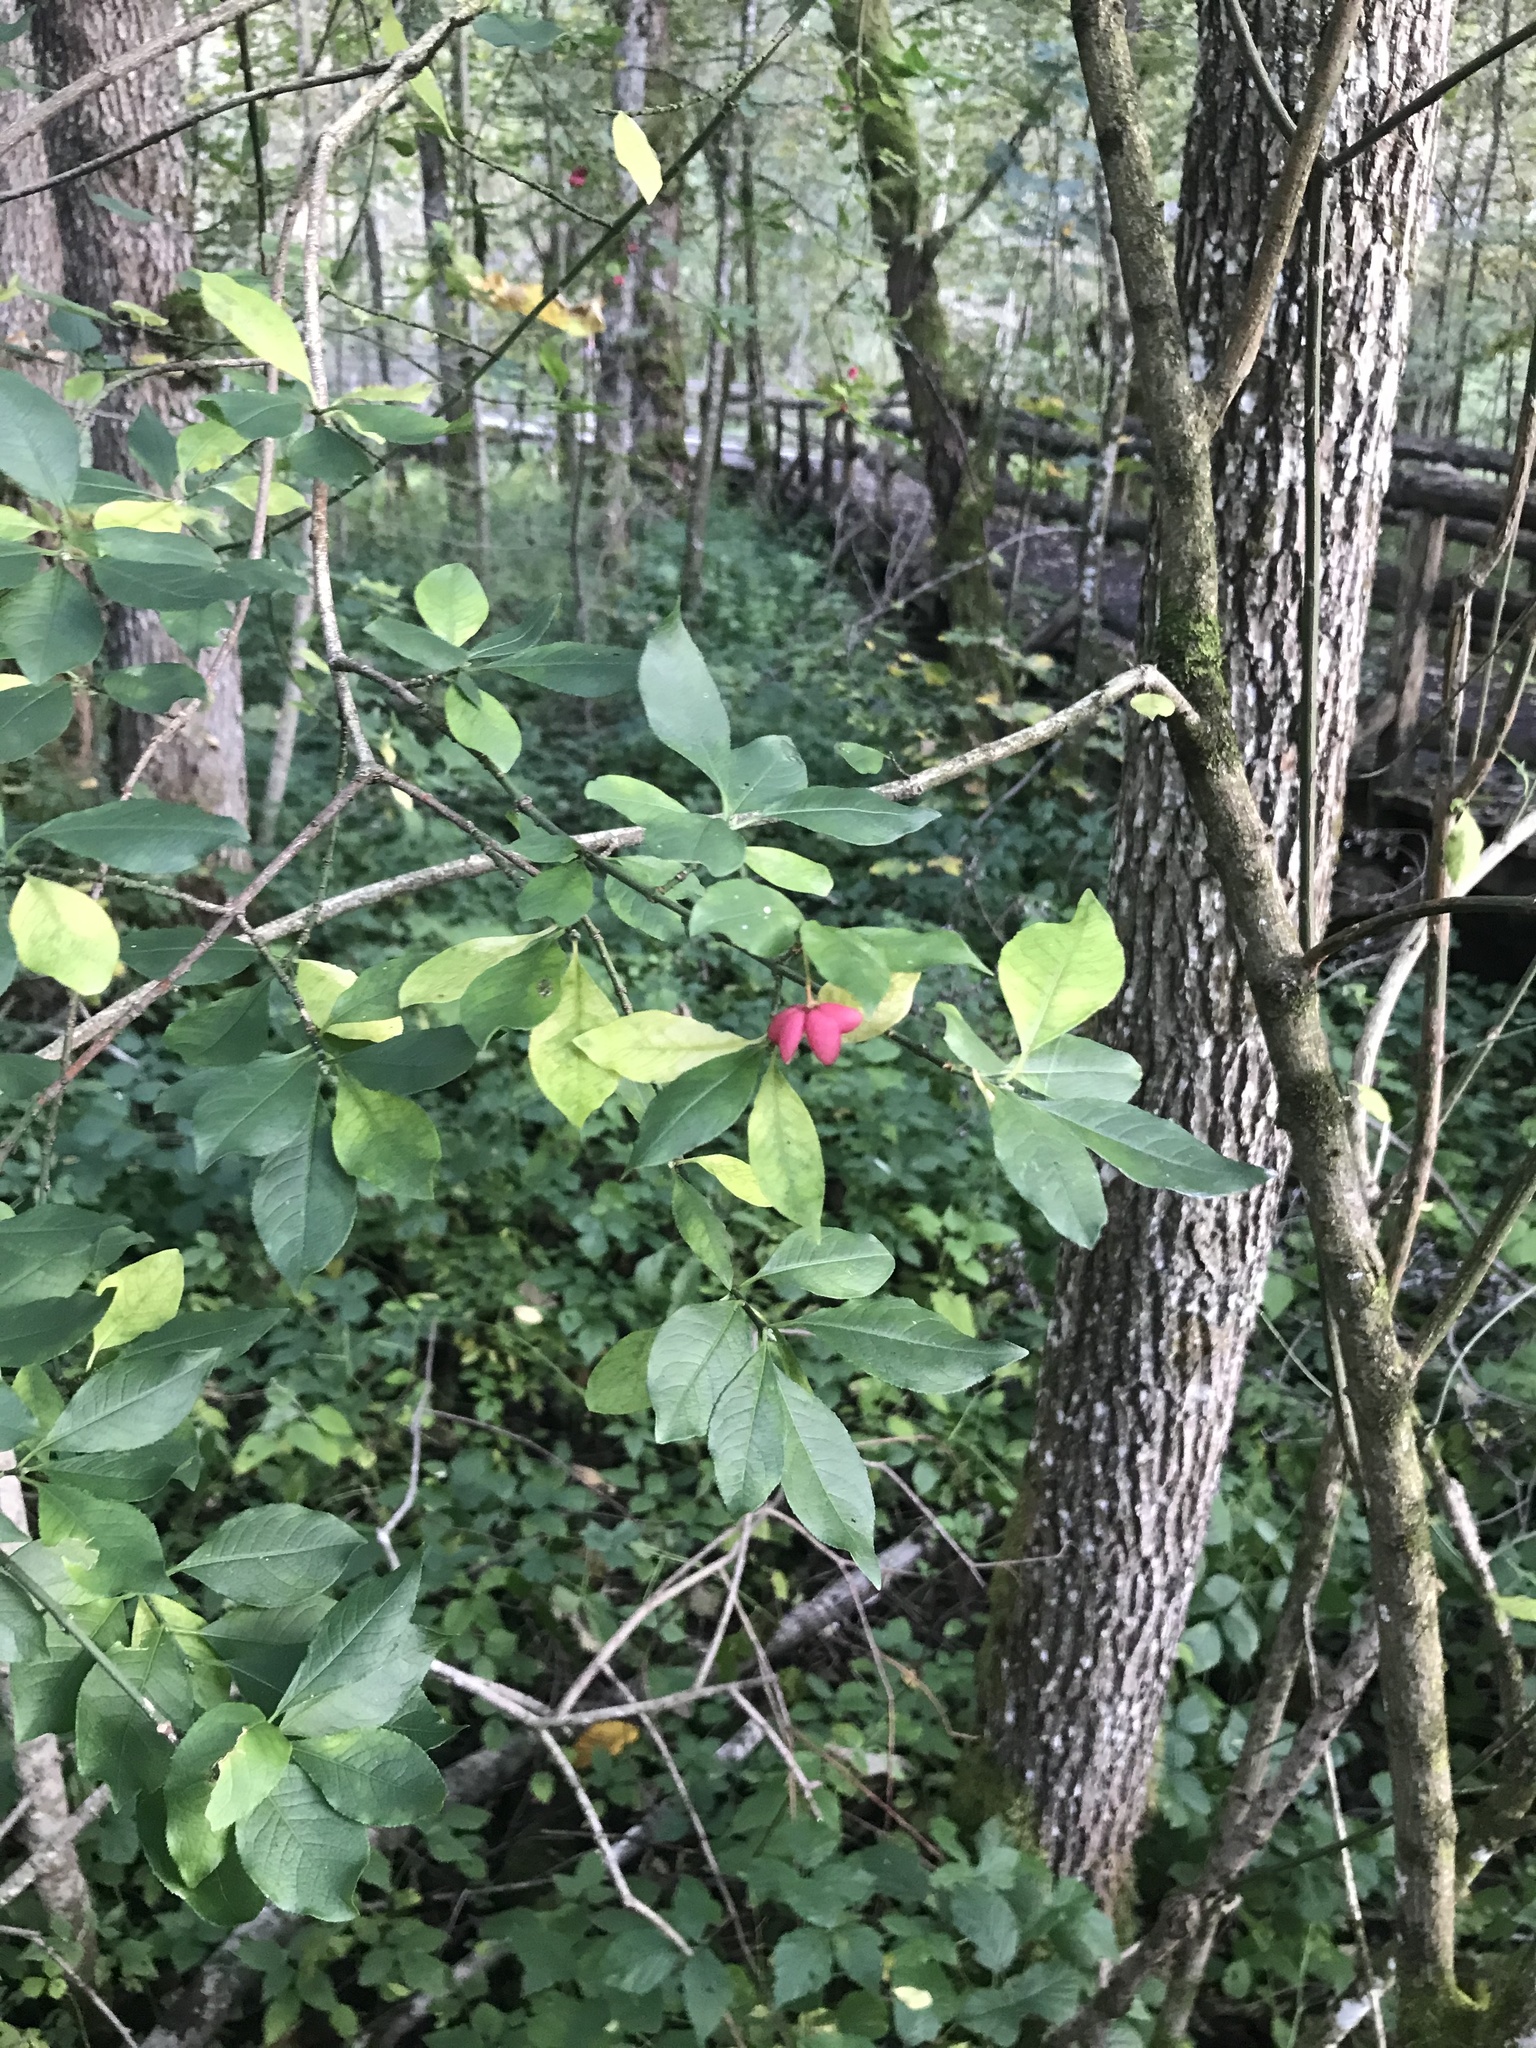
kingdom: Plantae
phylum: Tracheophyta
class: Magnoliopsida
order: Celastrales
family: Celastraceae
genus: Euonymus
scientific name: Euonymus europaeus
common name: Spindle
